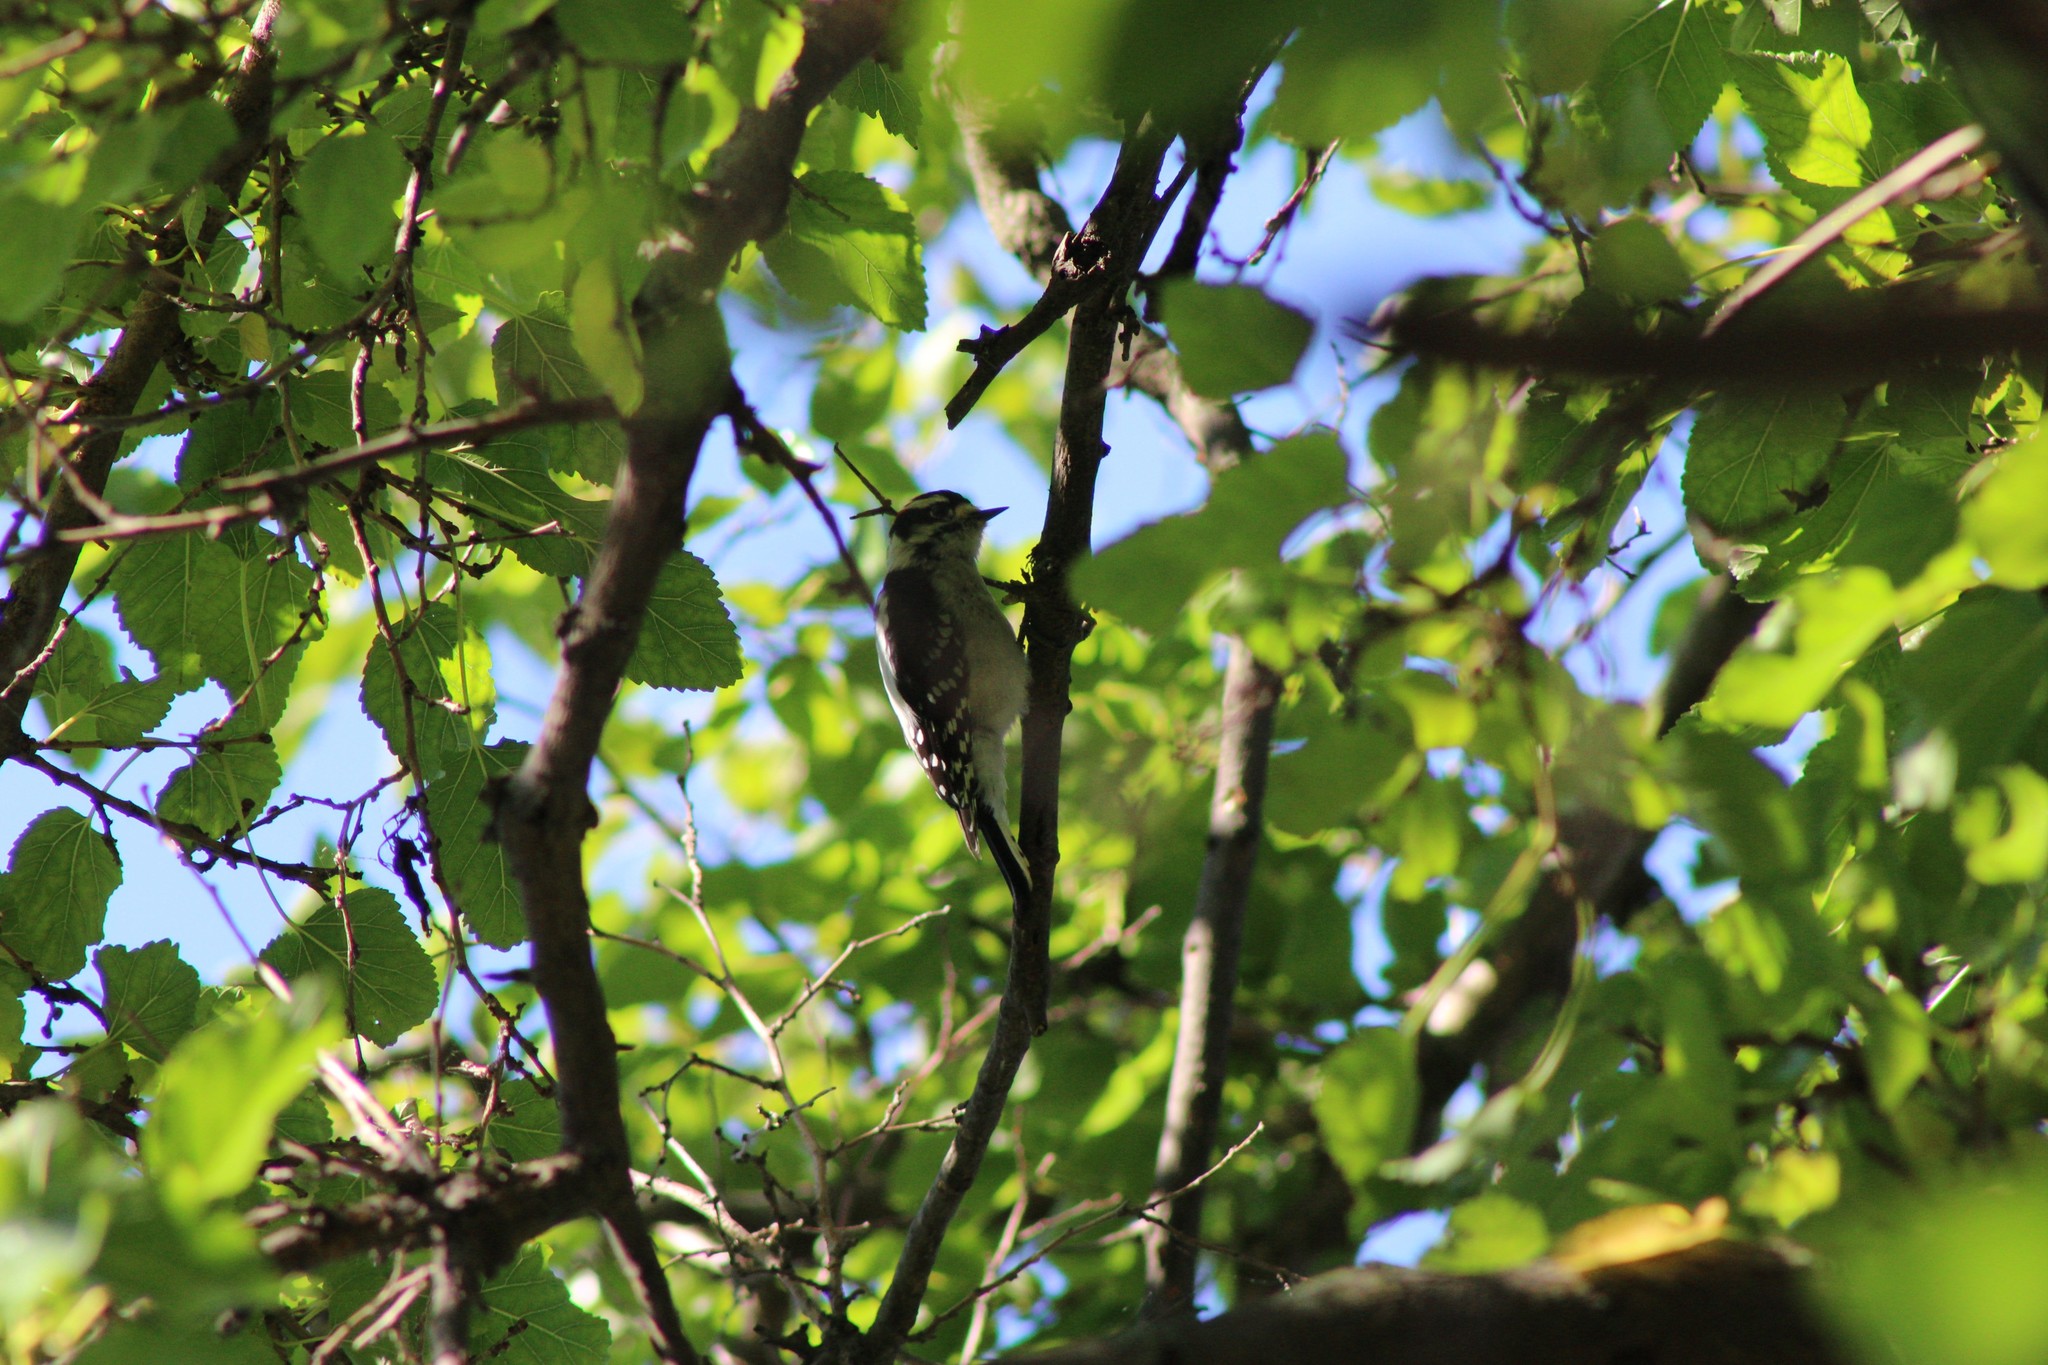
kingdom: Animalia
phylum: Chordata
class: Aves
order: Piciformes
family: Picidae
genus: Dryobates
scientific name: Dryobates pubescens
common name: Downy woodpecker
